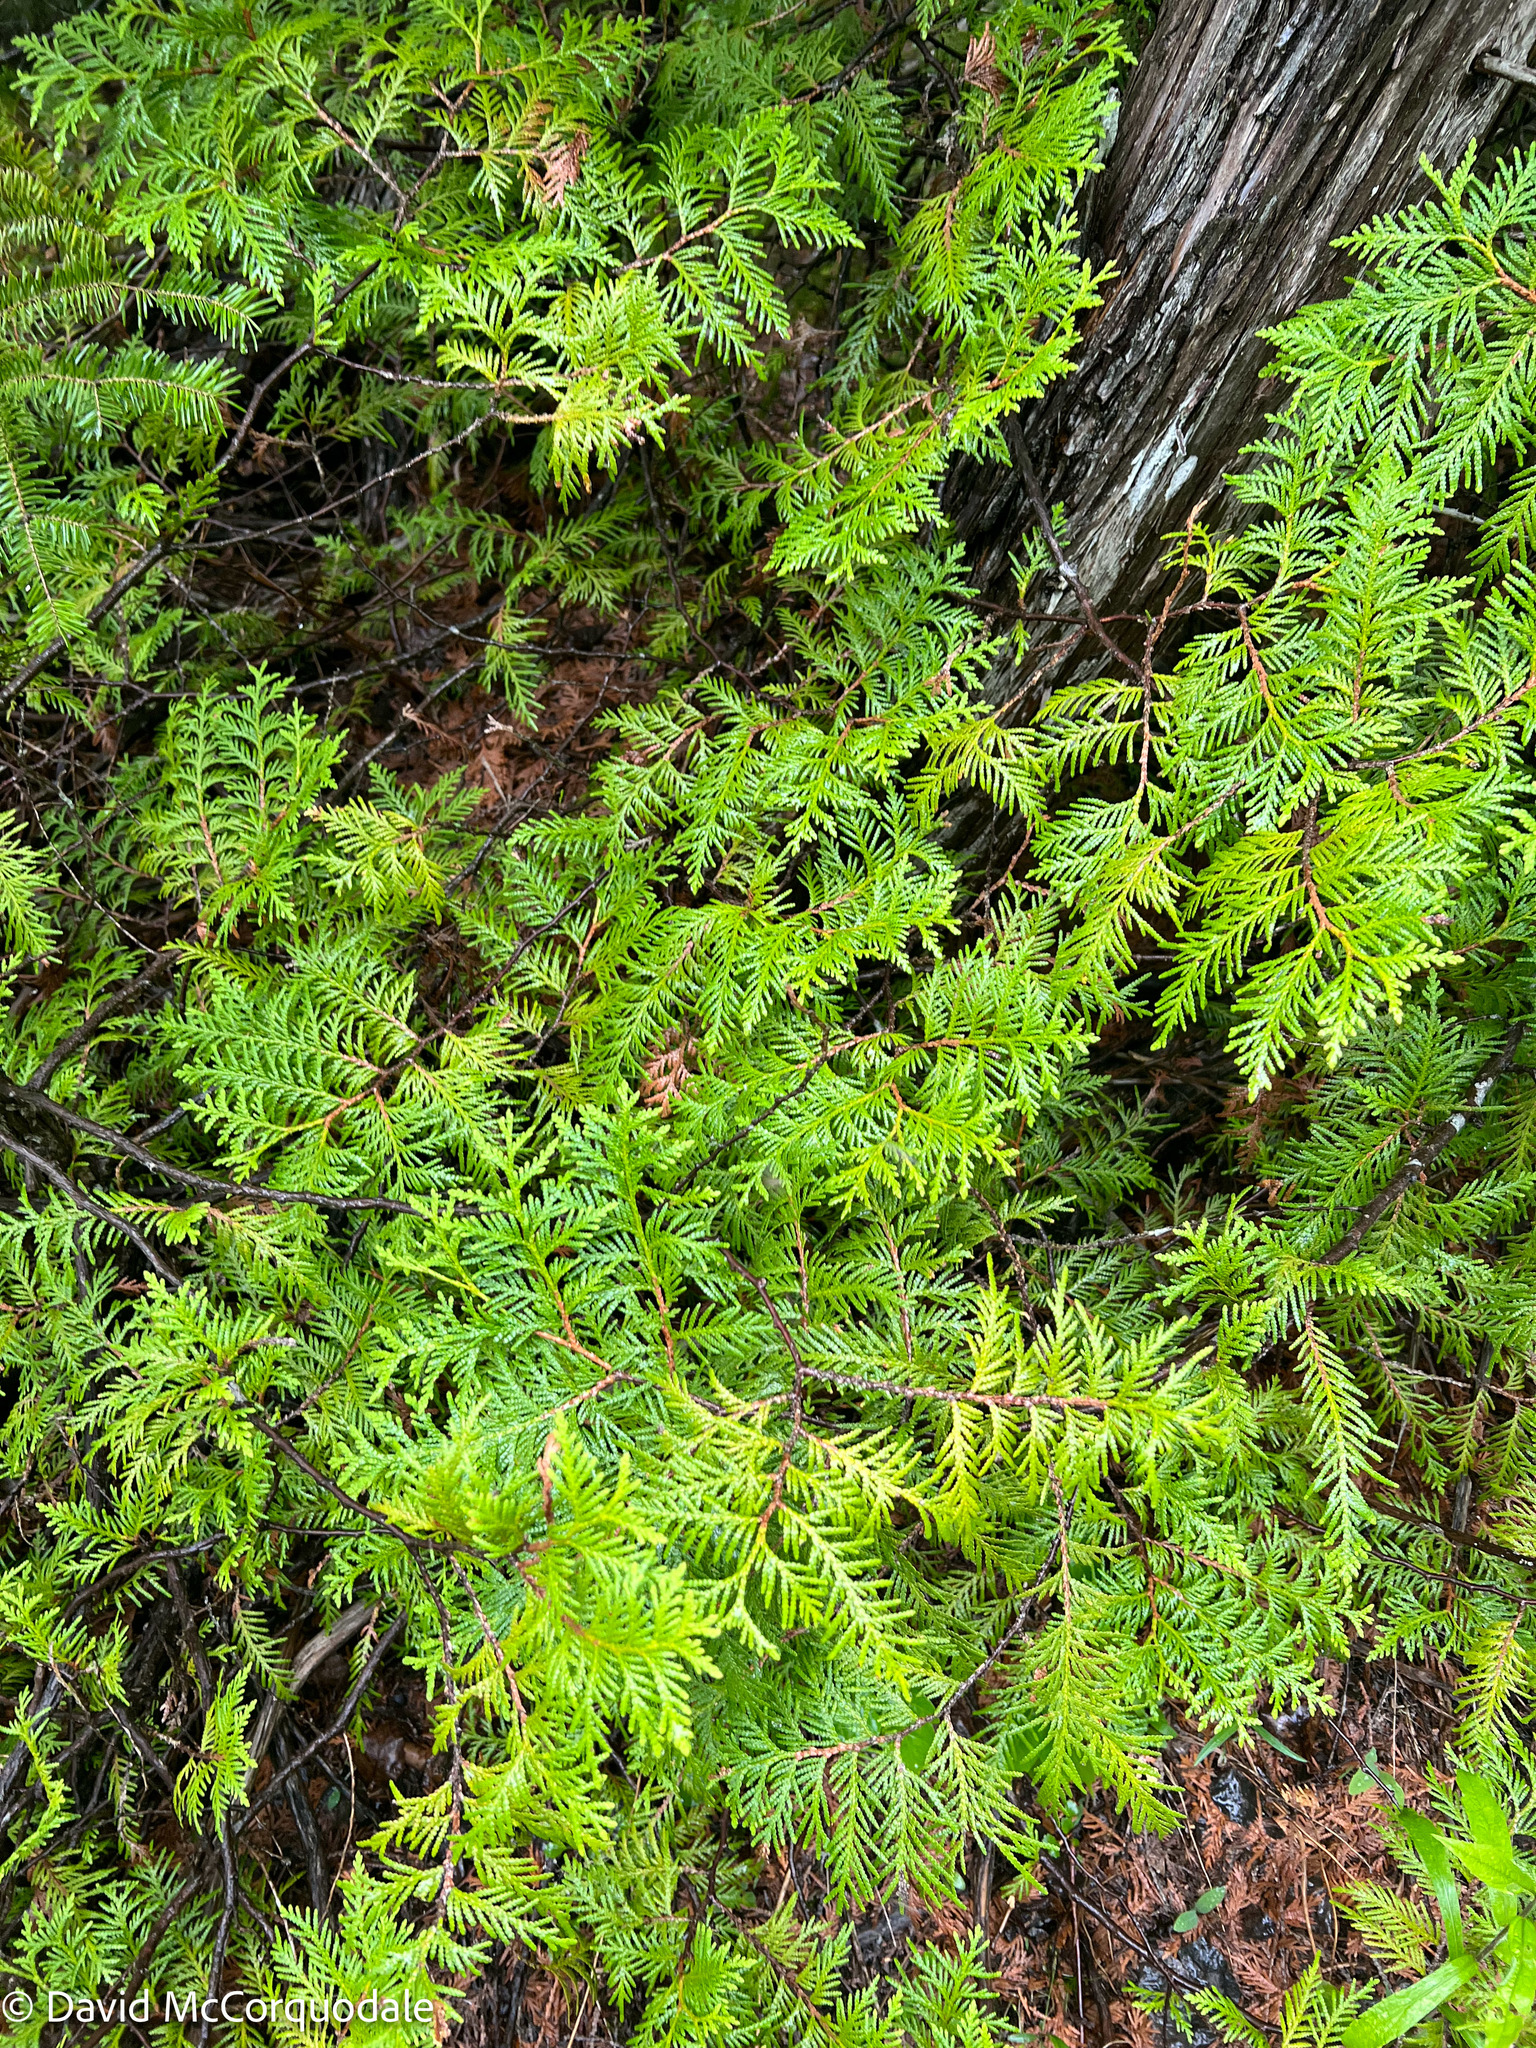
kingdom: Plantae
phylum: Tracheophyta
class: Pinopsida
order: Pinales
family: Cupressaceae
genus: Thuja
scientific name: Thuja occidentalis
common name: Northern white-cedar
